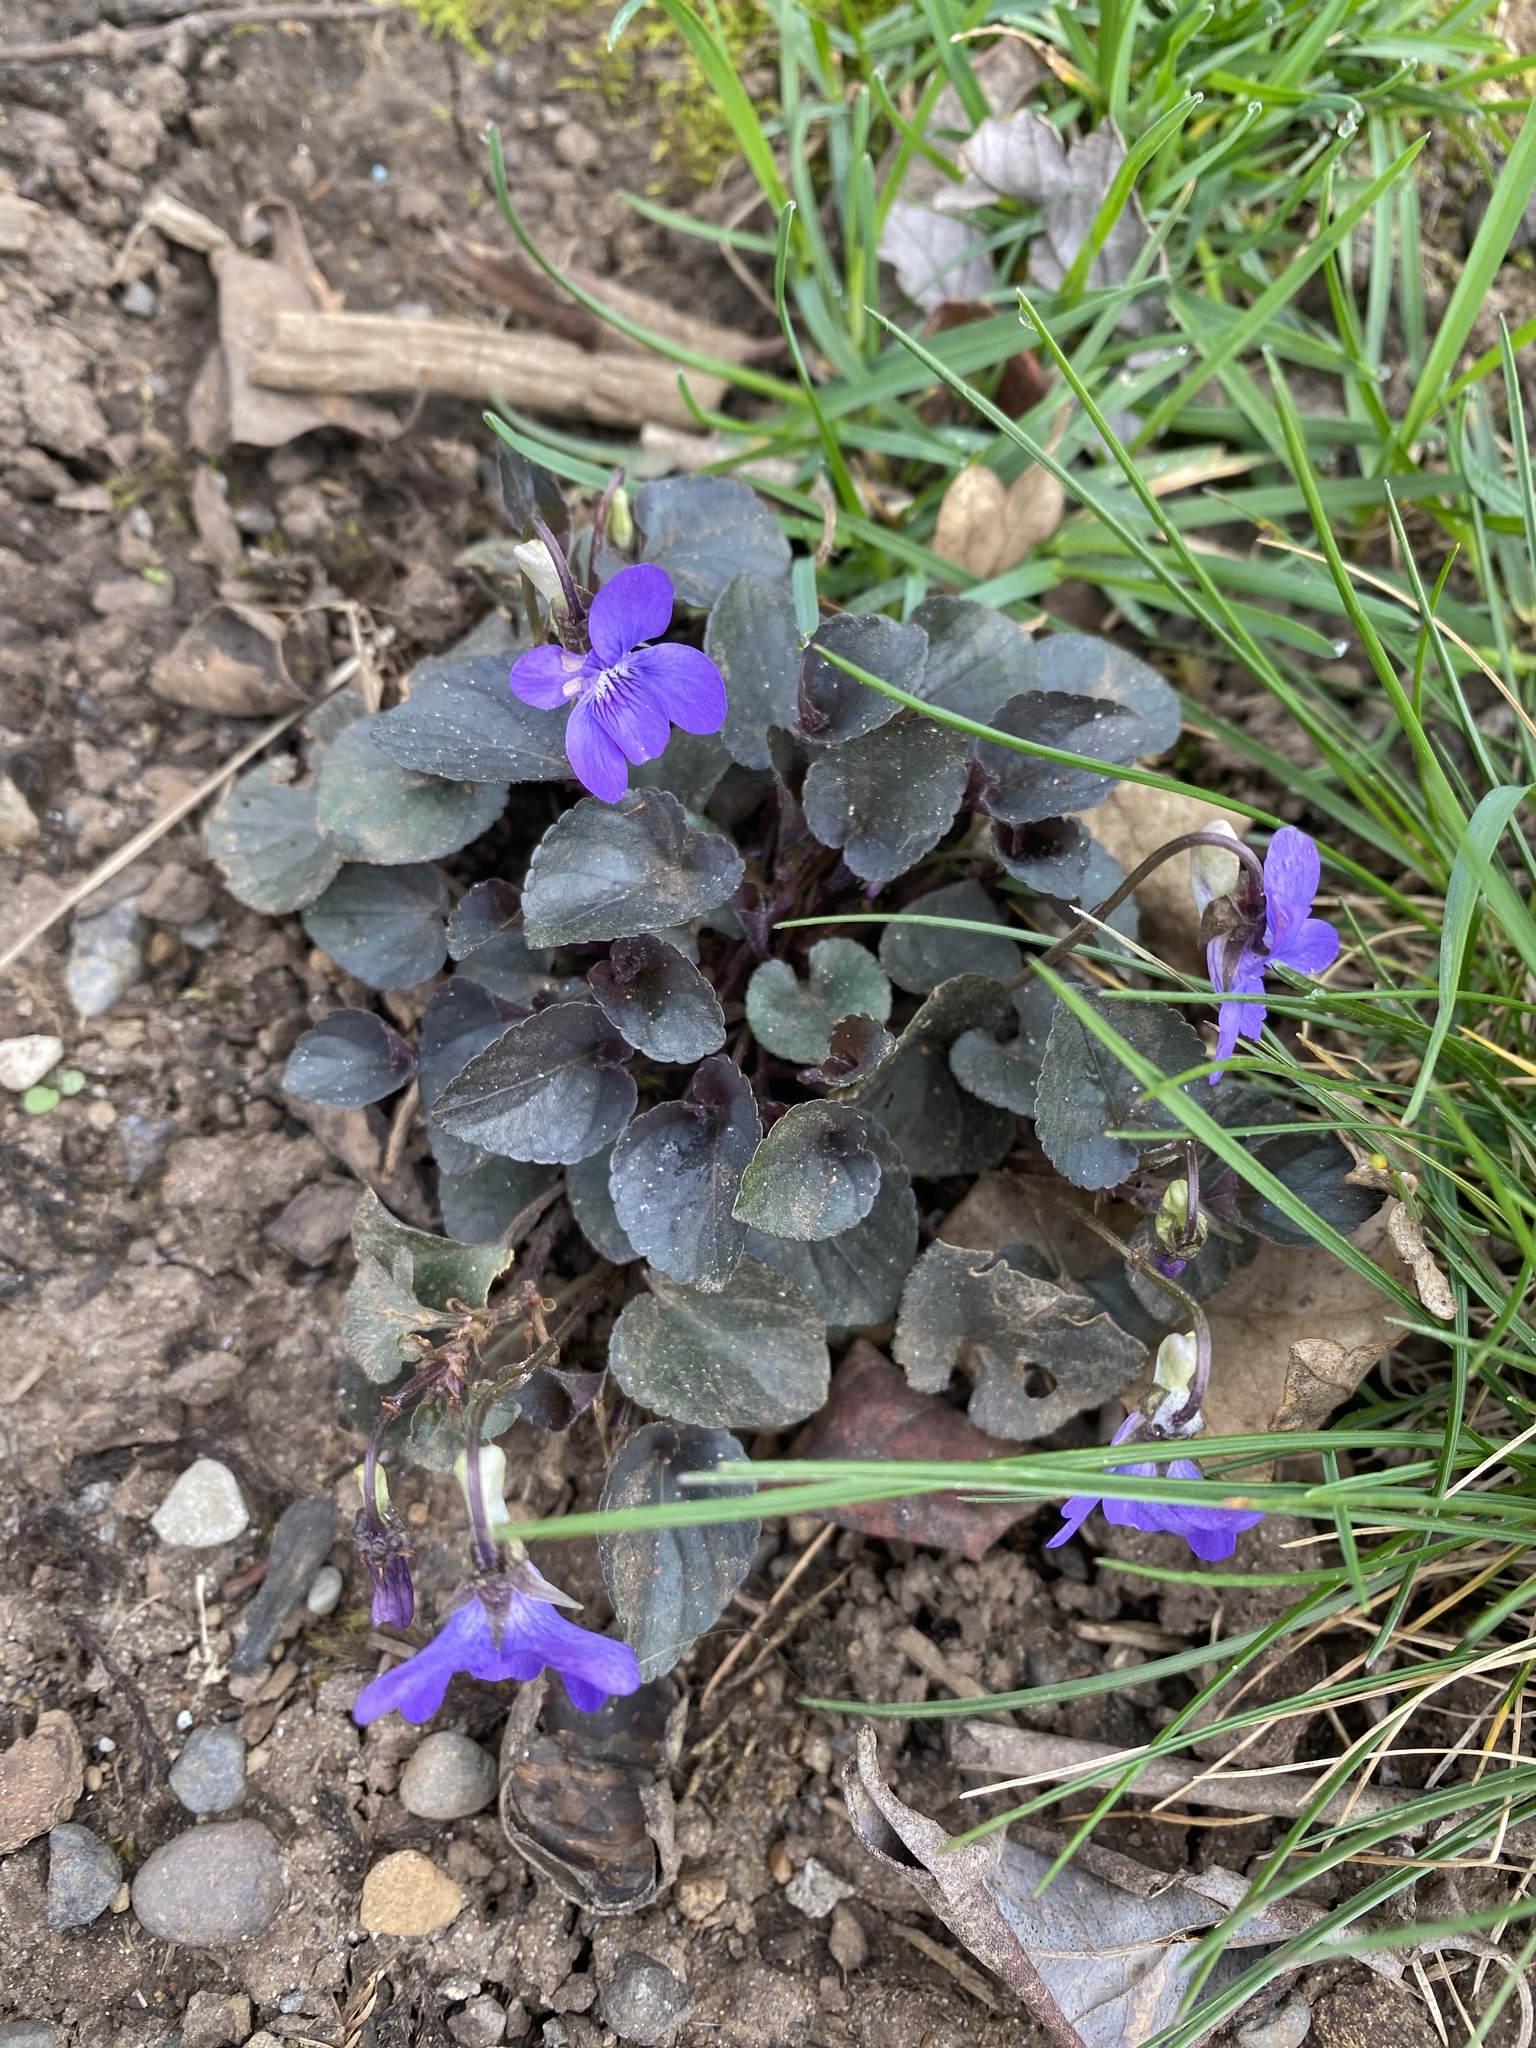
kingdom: Plantae
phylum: Tracheophyta
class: Magnoliopsida
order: Malpighiales
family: Violaceae
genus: Viola
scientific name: Viola riviniana
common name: Common dog-violet
